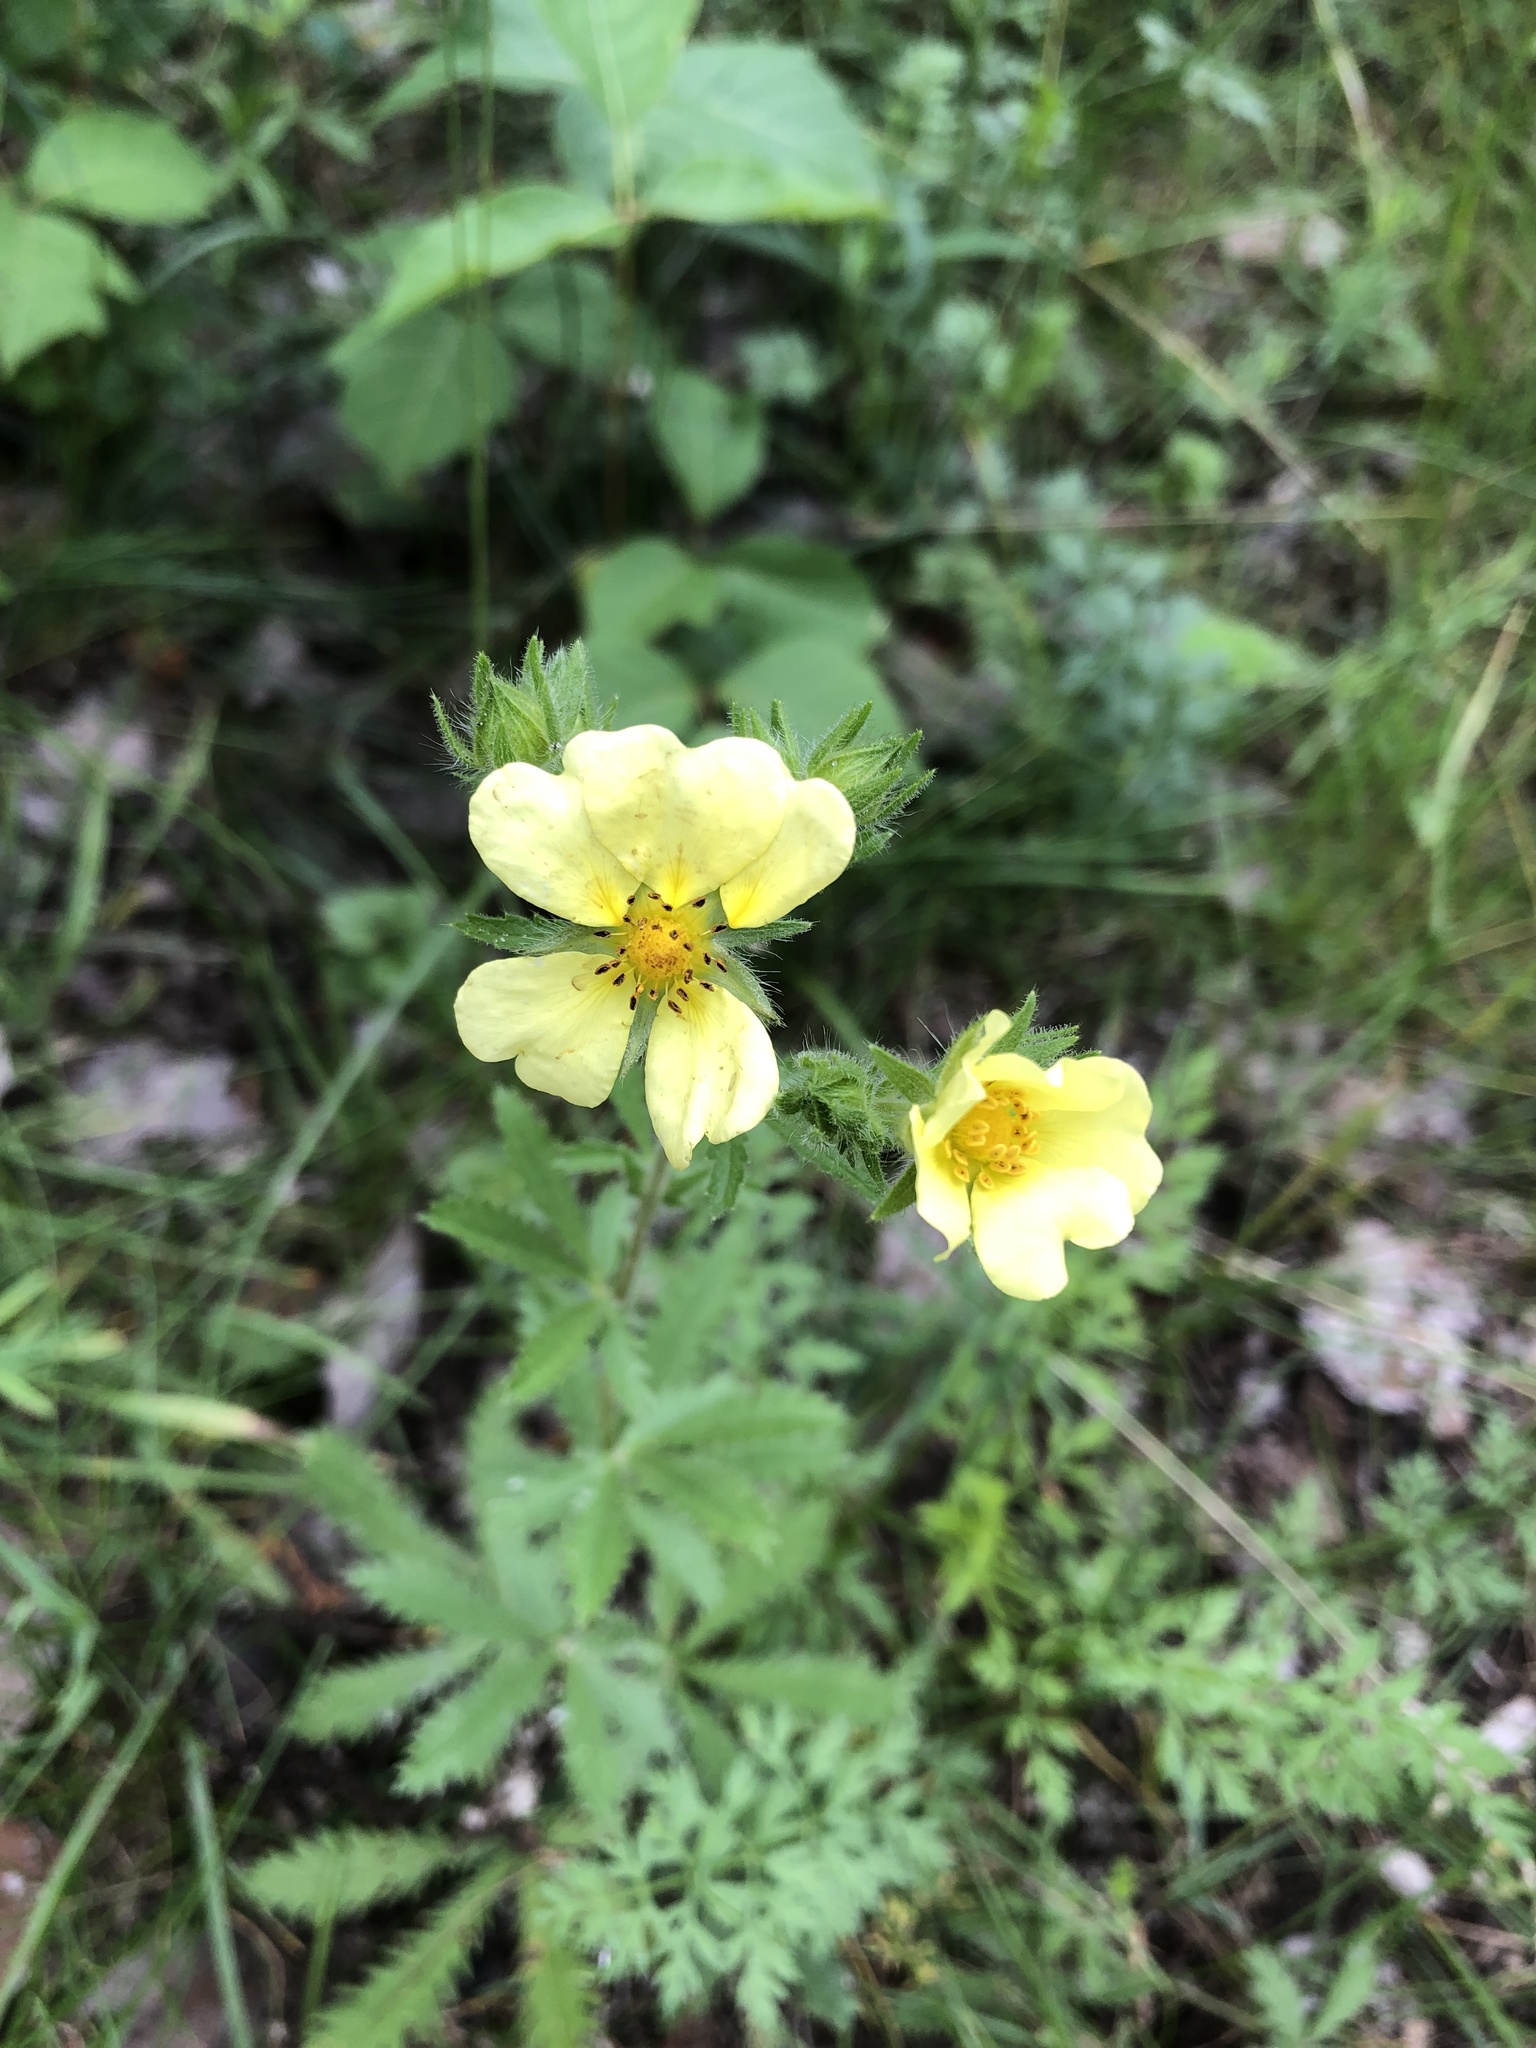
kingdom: Plantae
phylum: Tracheophyta
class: Magnoliopsida
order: Rosales
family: Rosaceae
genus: Potentilla
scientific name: Potentilla recta
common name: Sulphur cinquefoil
